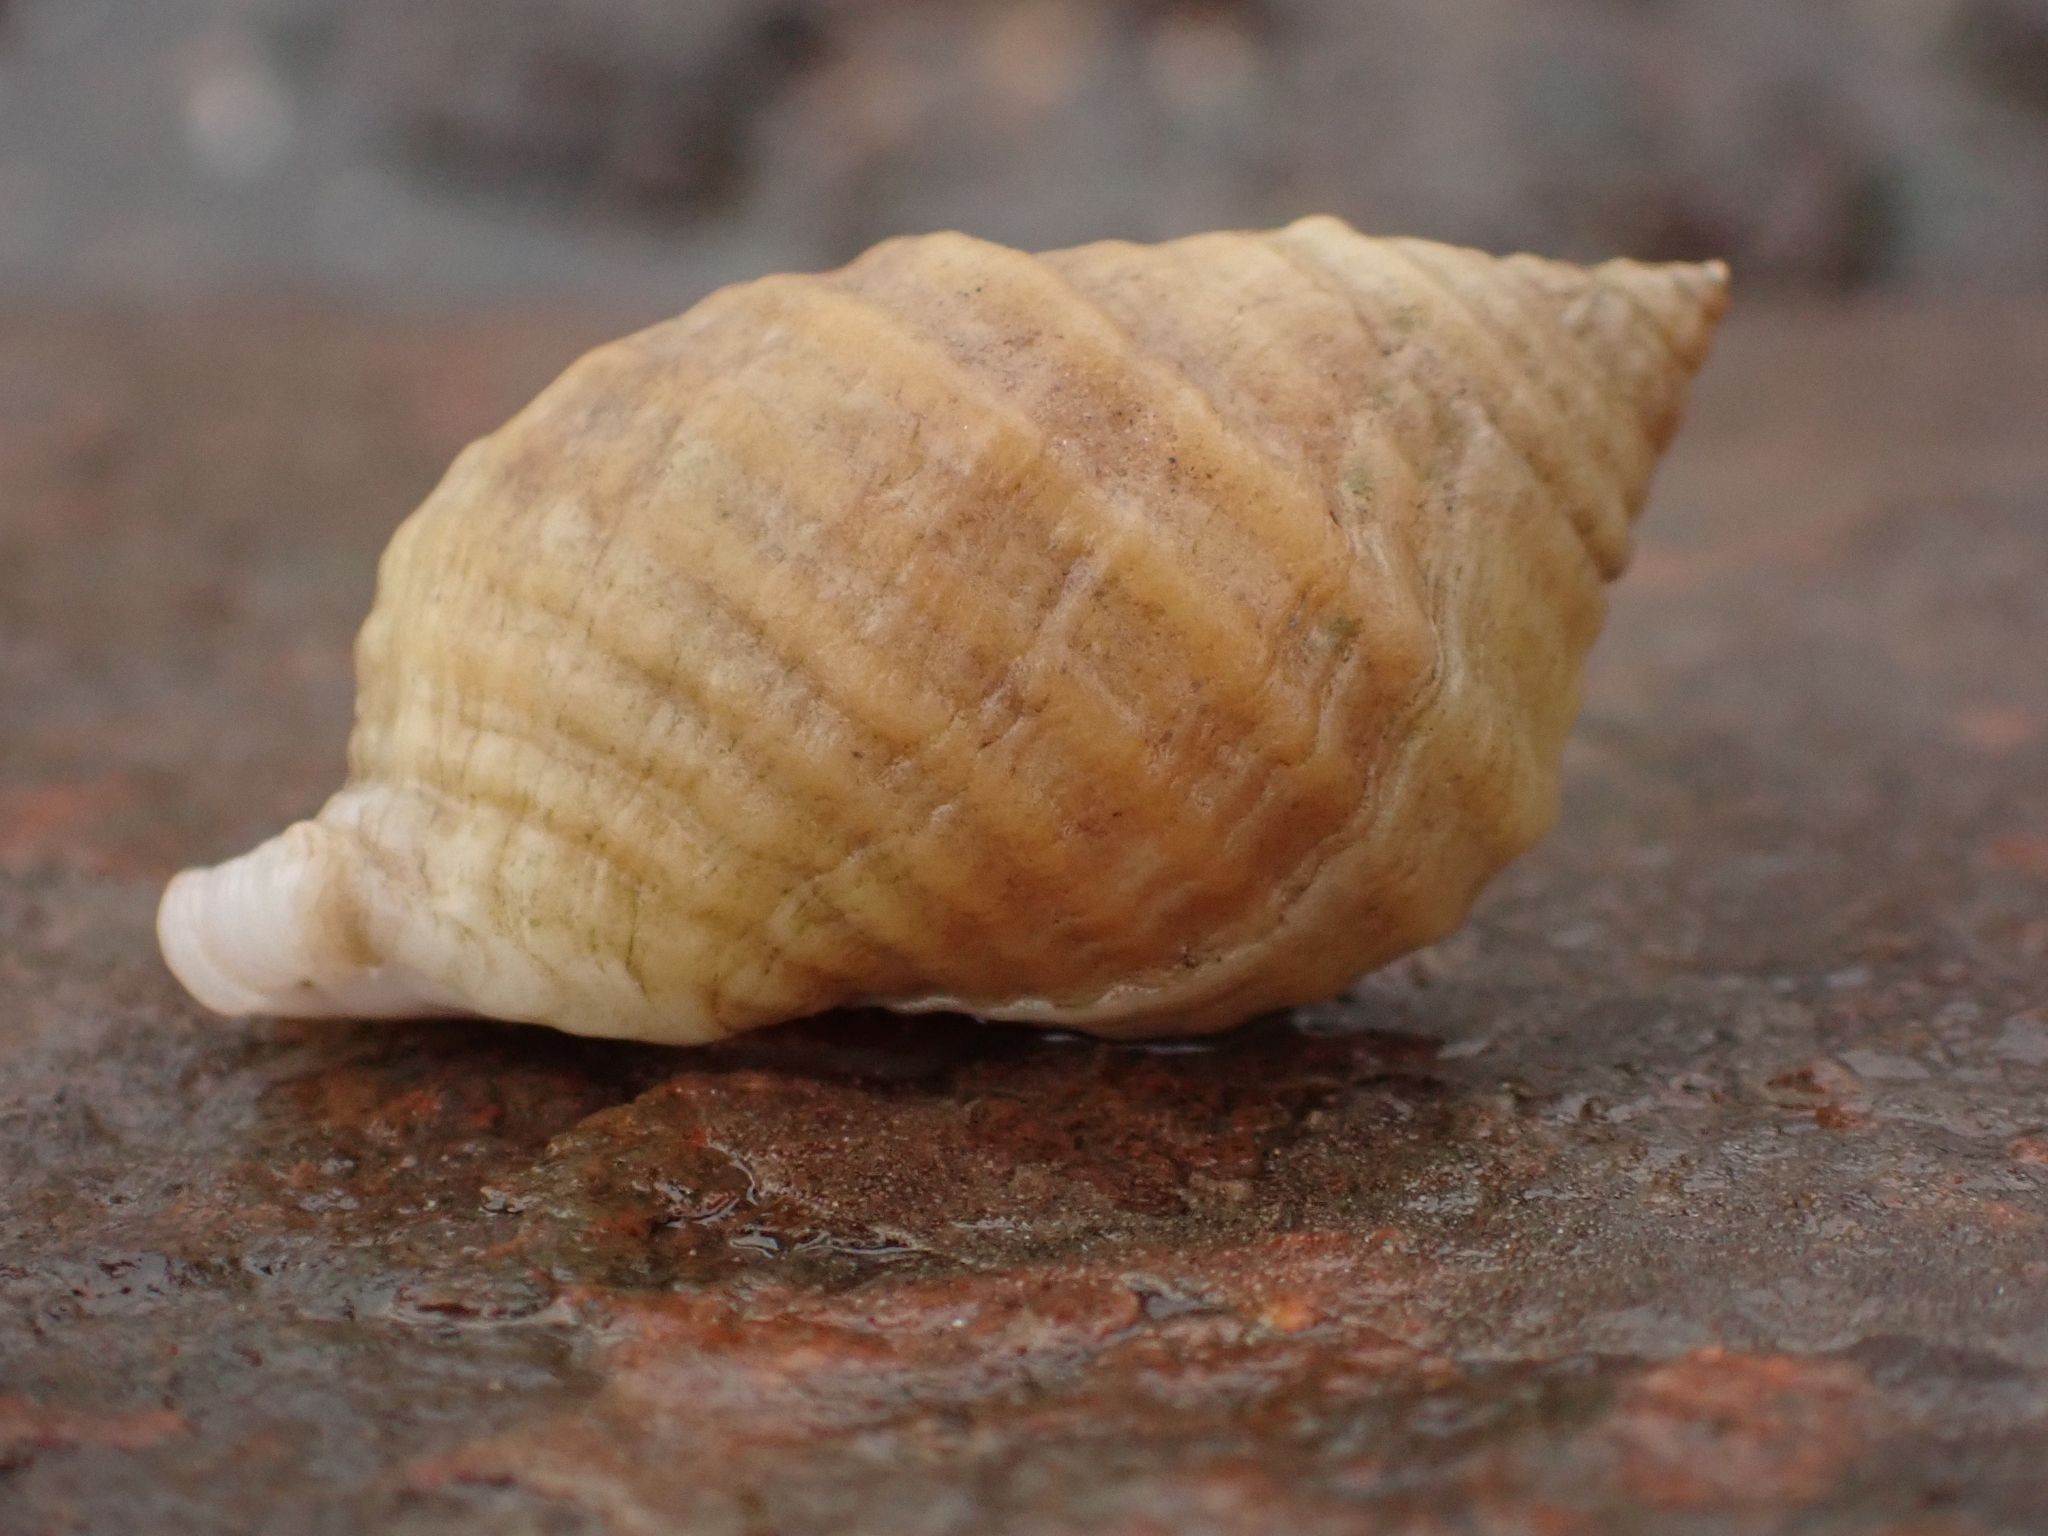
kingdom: Animalia
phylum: Mollusca
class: Gastropoda
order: Neogastropoda
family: Muricidae
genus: Nucella
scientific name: Nucella lapillus
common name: Dog whelk
